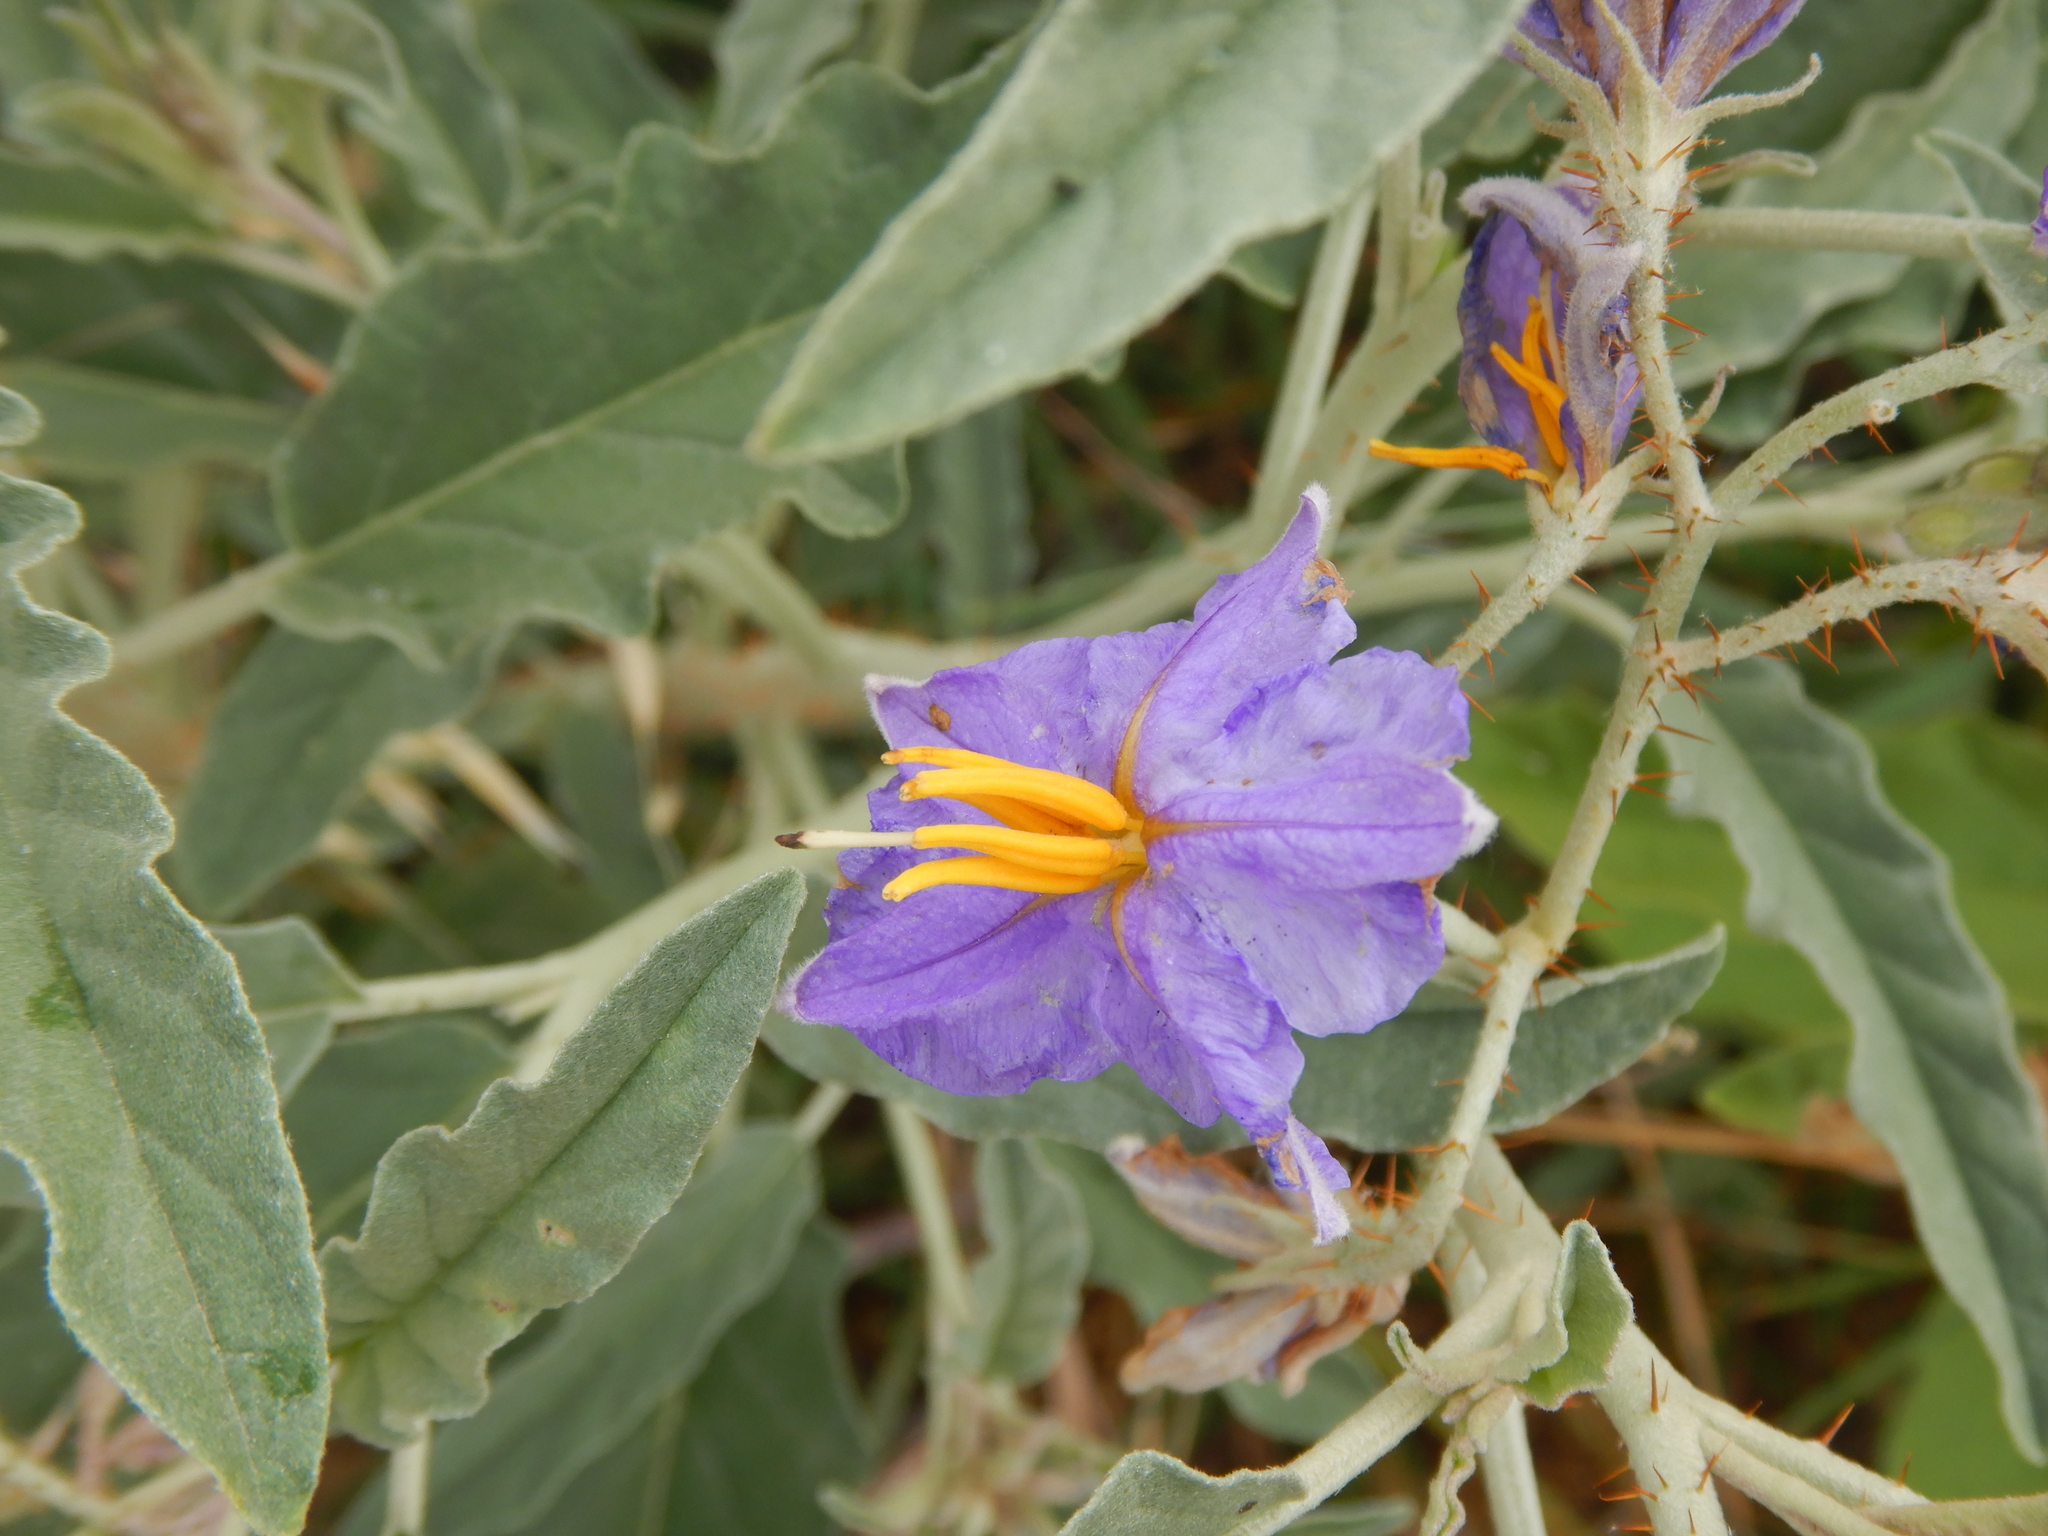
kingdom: Plantae
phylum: Tracheophyta
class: Magnoliopsida
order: Solanales
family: Solanaceae
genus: Solanum
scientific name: Solanum elaeagnifolium
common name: Silverleaf nightshade
